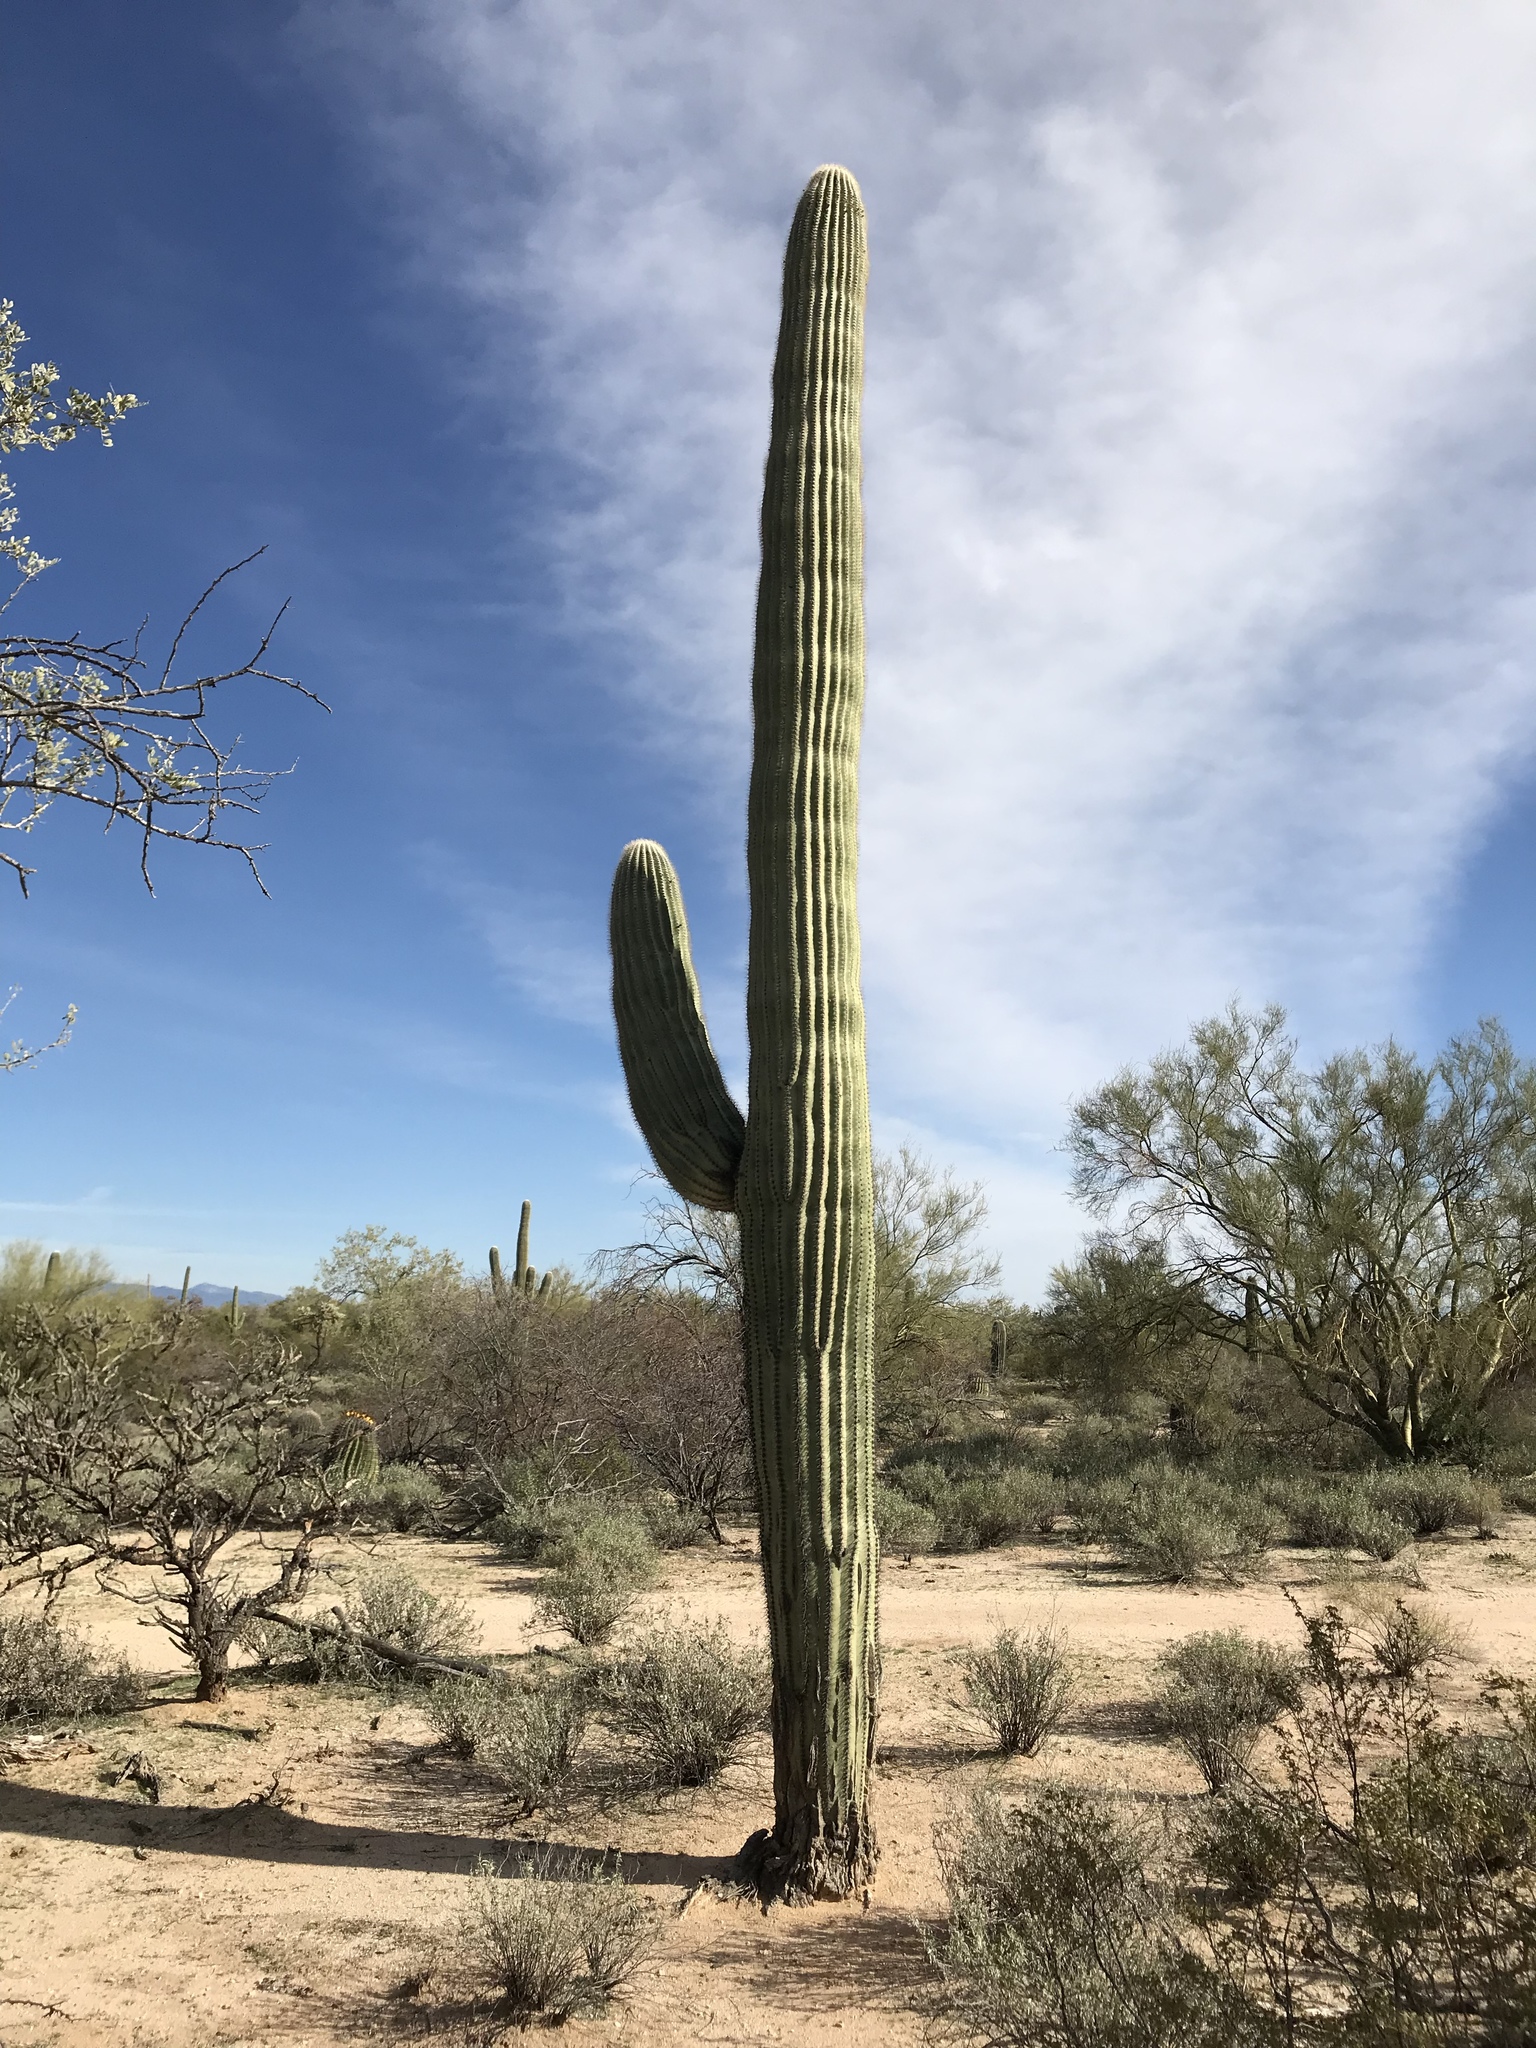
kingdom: Plantae
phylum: Tracheophyta
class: Magnoliopsida
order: Caryophyllales
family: Cactaceae
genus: Carnegiea
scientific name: Carnegiea gigantea
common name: Saguaro
